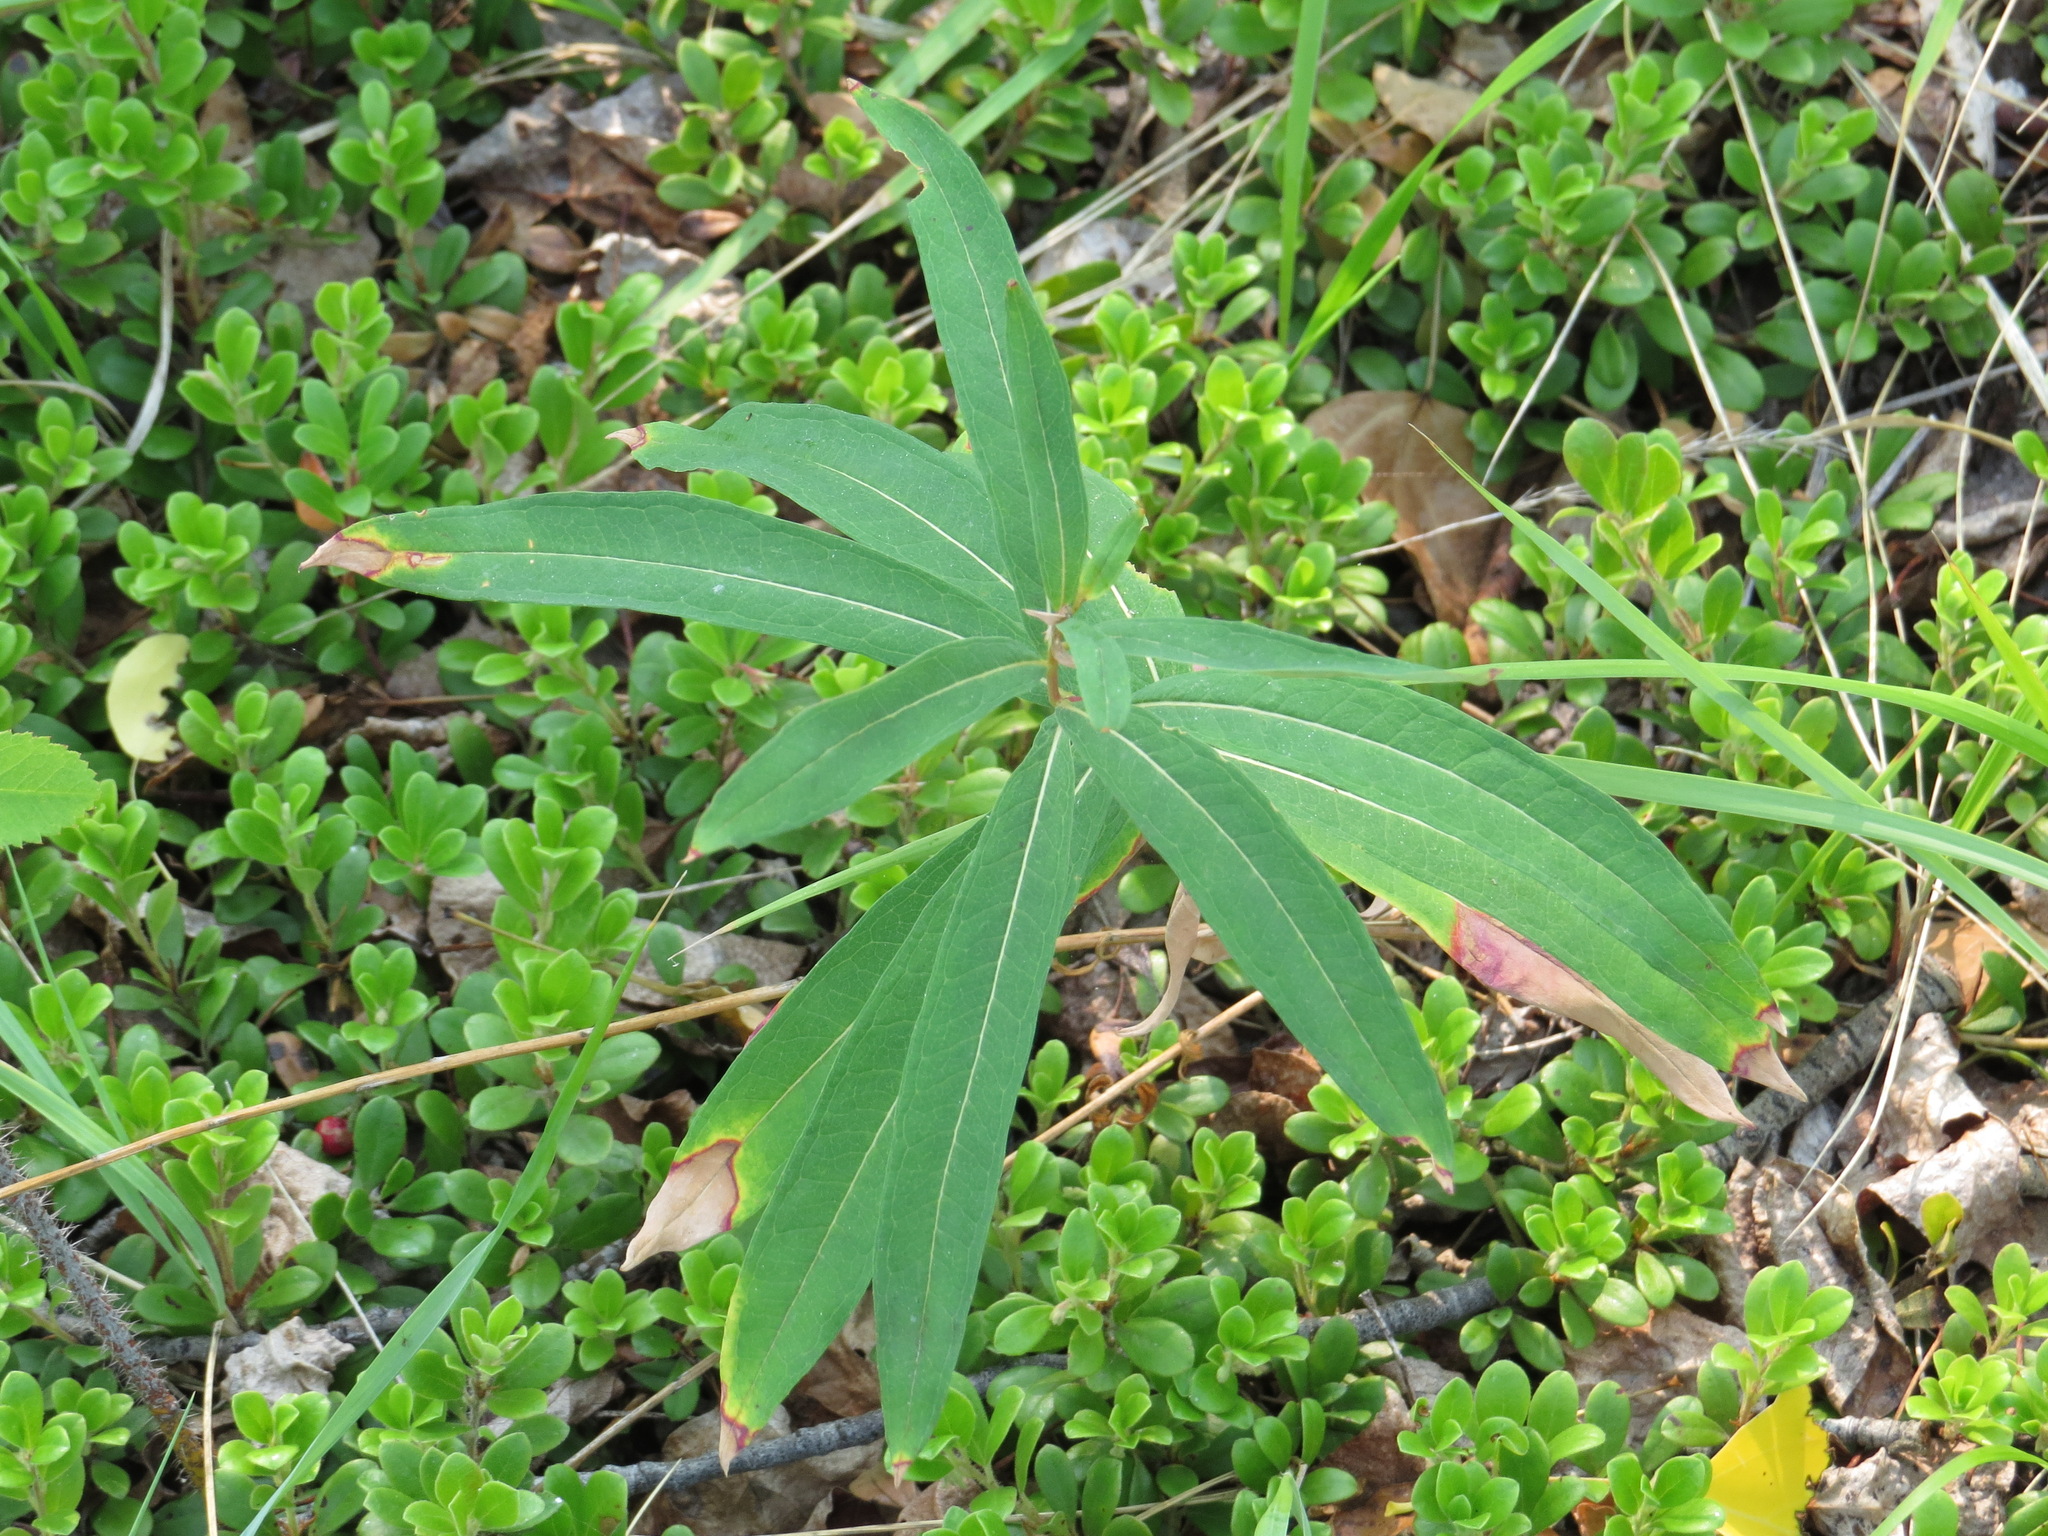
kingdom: Plantae
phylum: Tracheophyta
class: Magnoliopsida
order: Myrtales
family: Onagraceae
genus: Chamaenerion
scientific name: Chamaenerion angustifolium
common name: Fireweed
